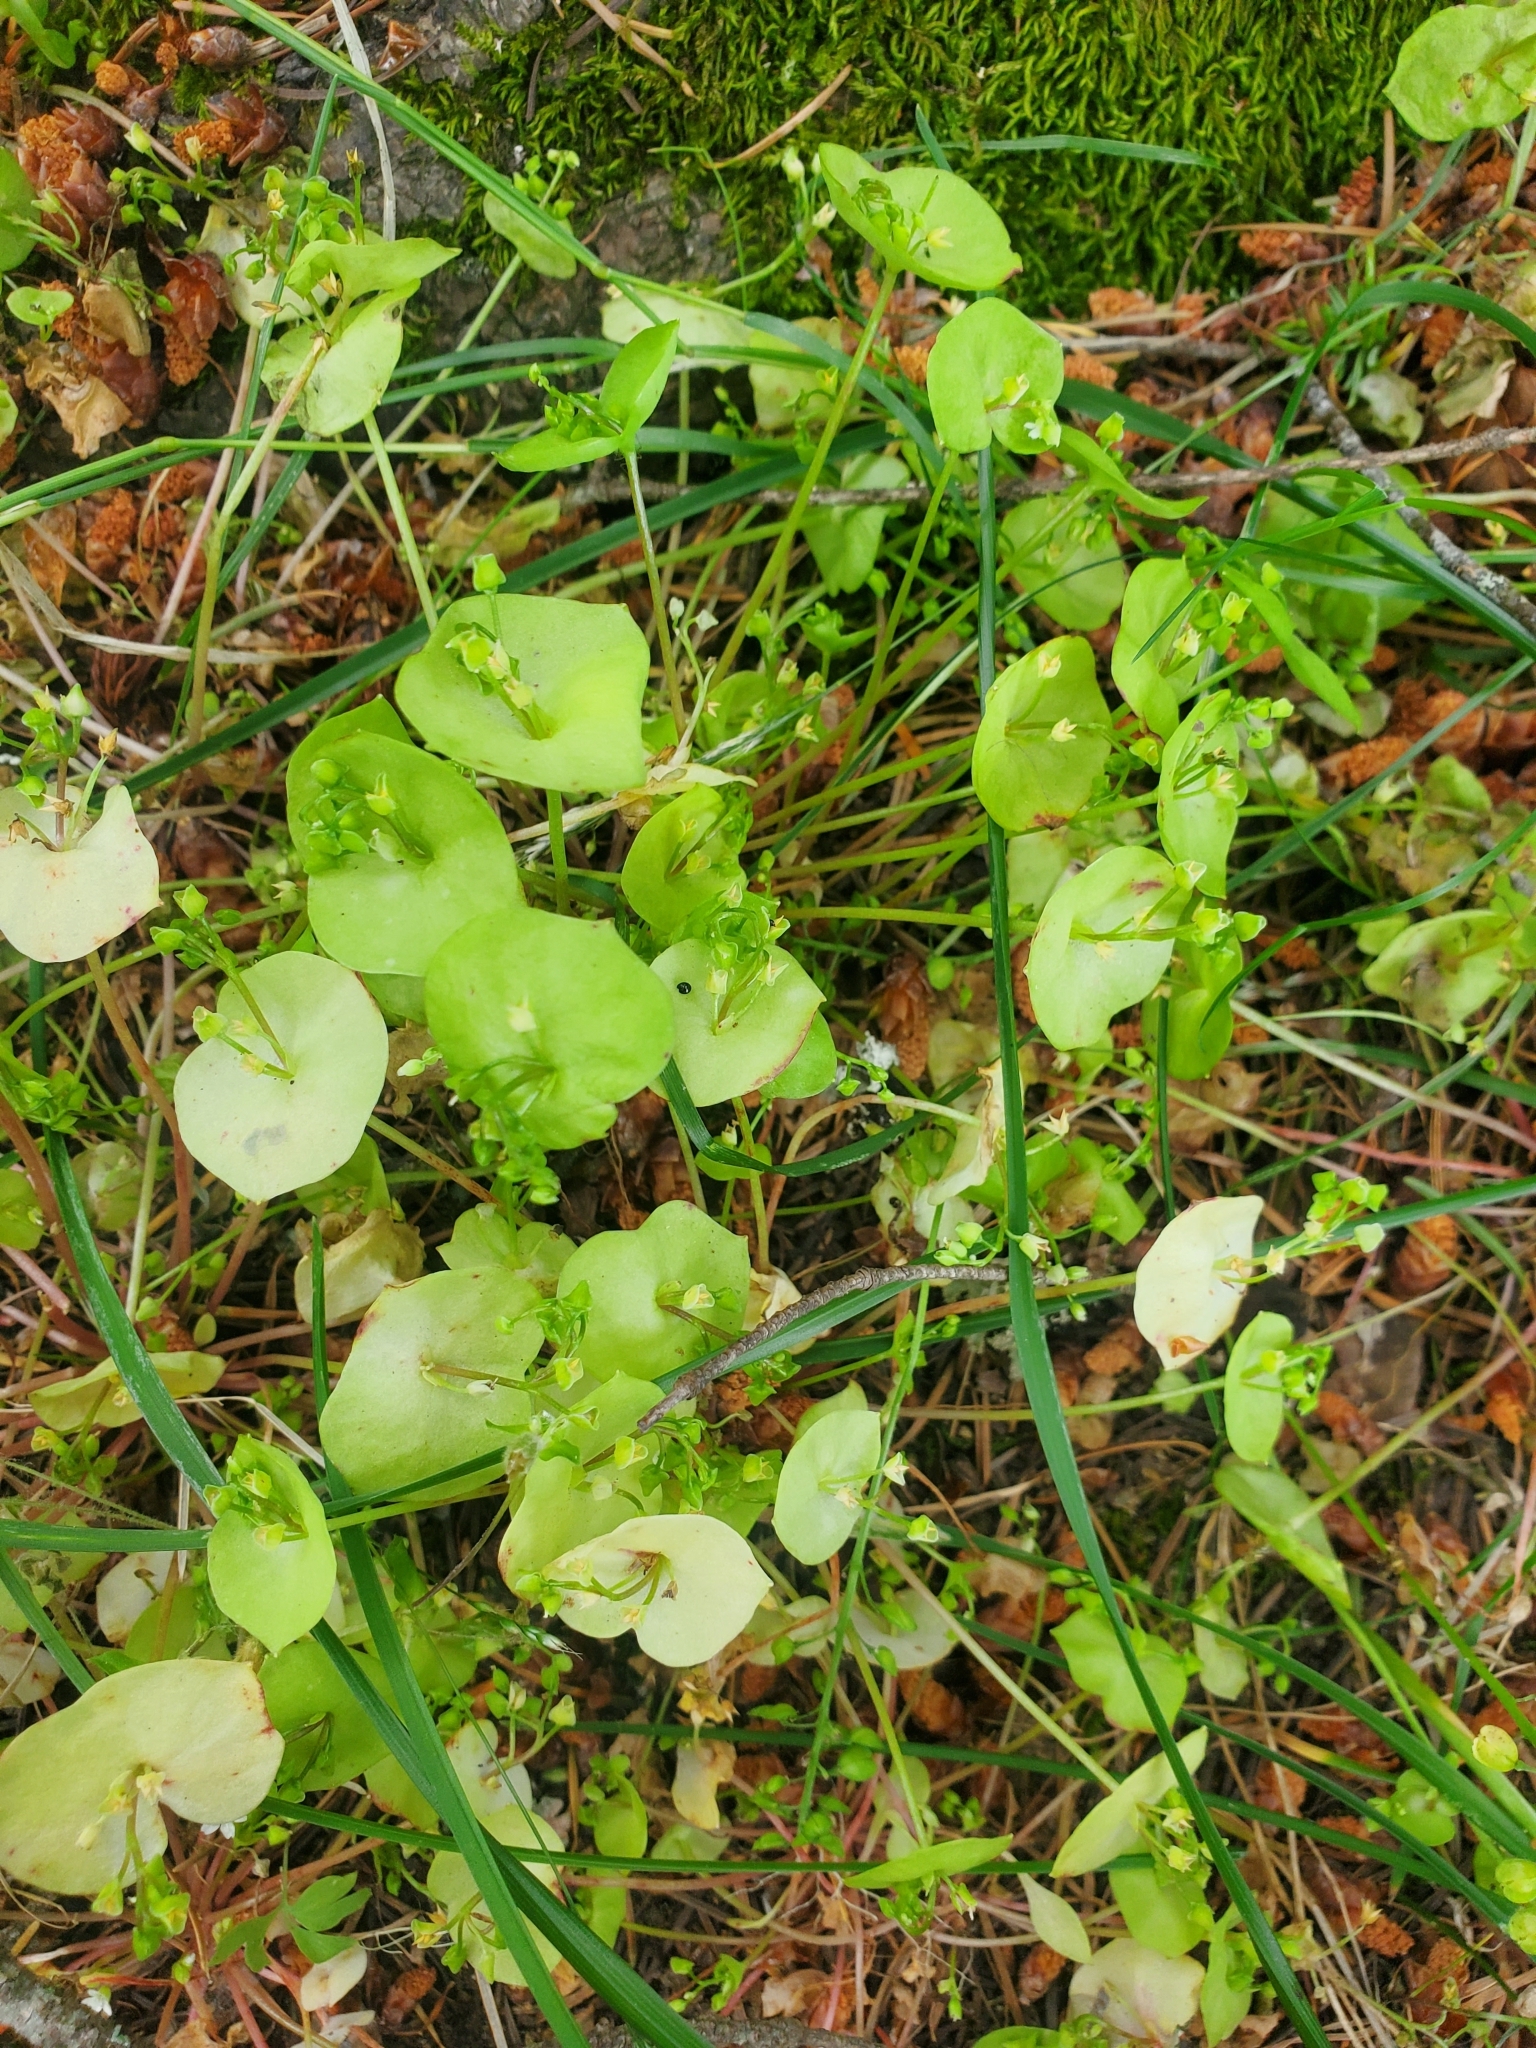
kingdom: Plantae
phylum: Tracheophyta
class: Magnoliopsida
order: Caryophyllales
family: Montiaceae
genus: Claytonia
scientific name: Claytonia perfoliata
